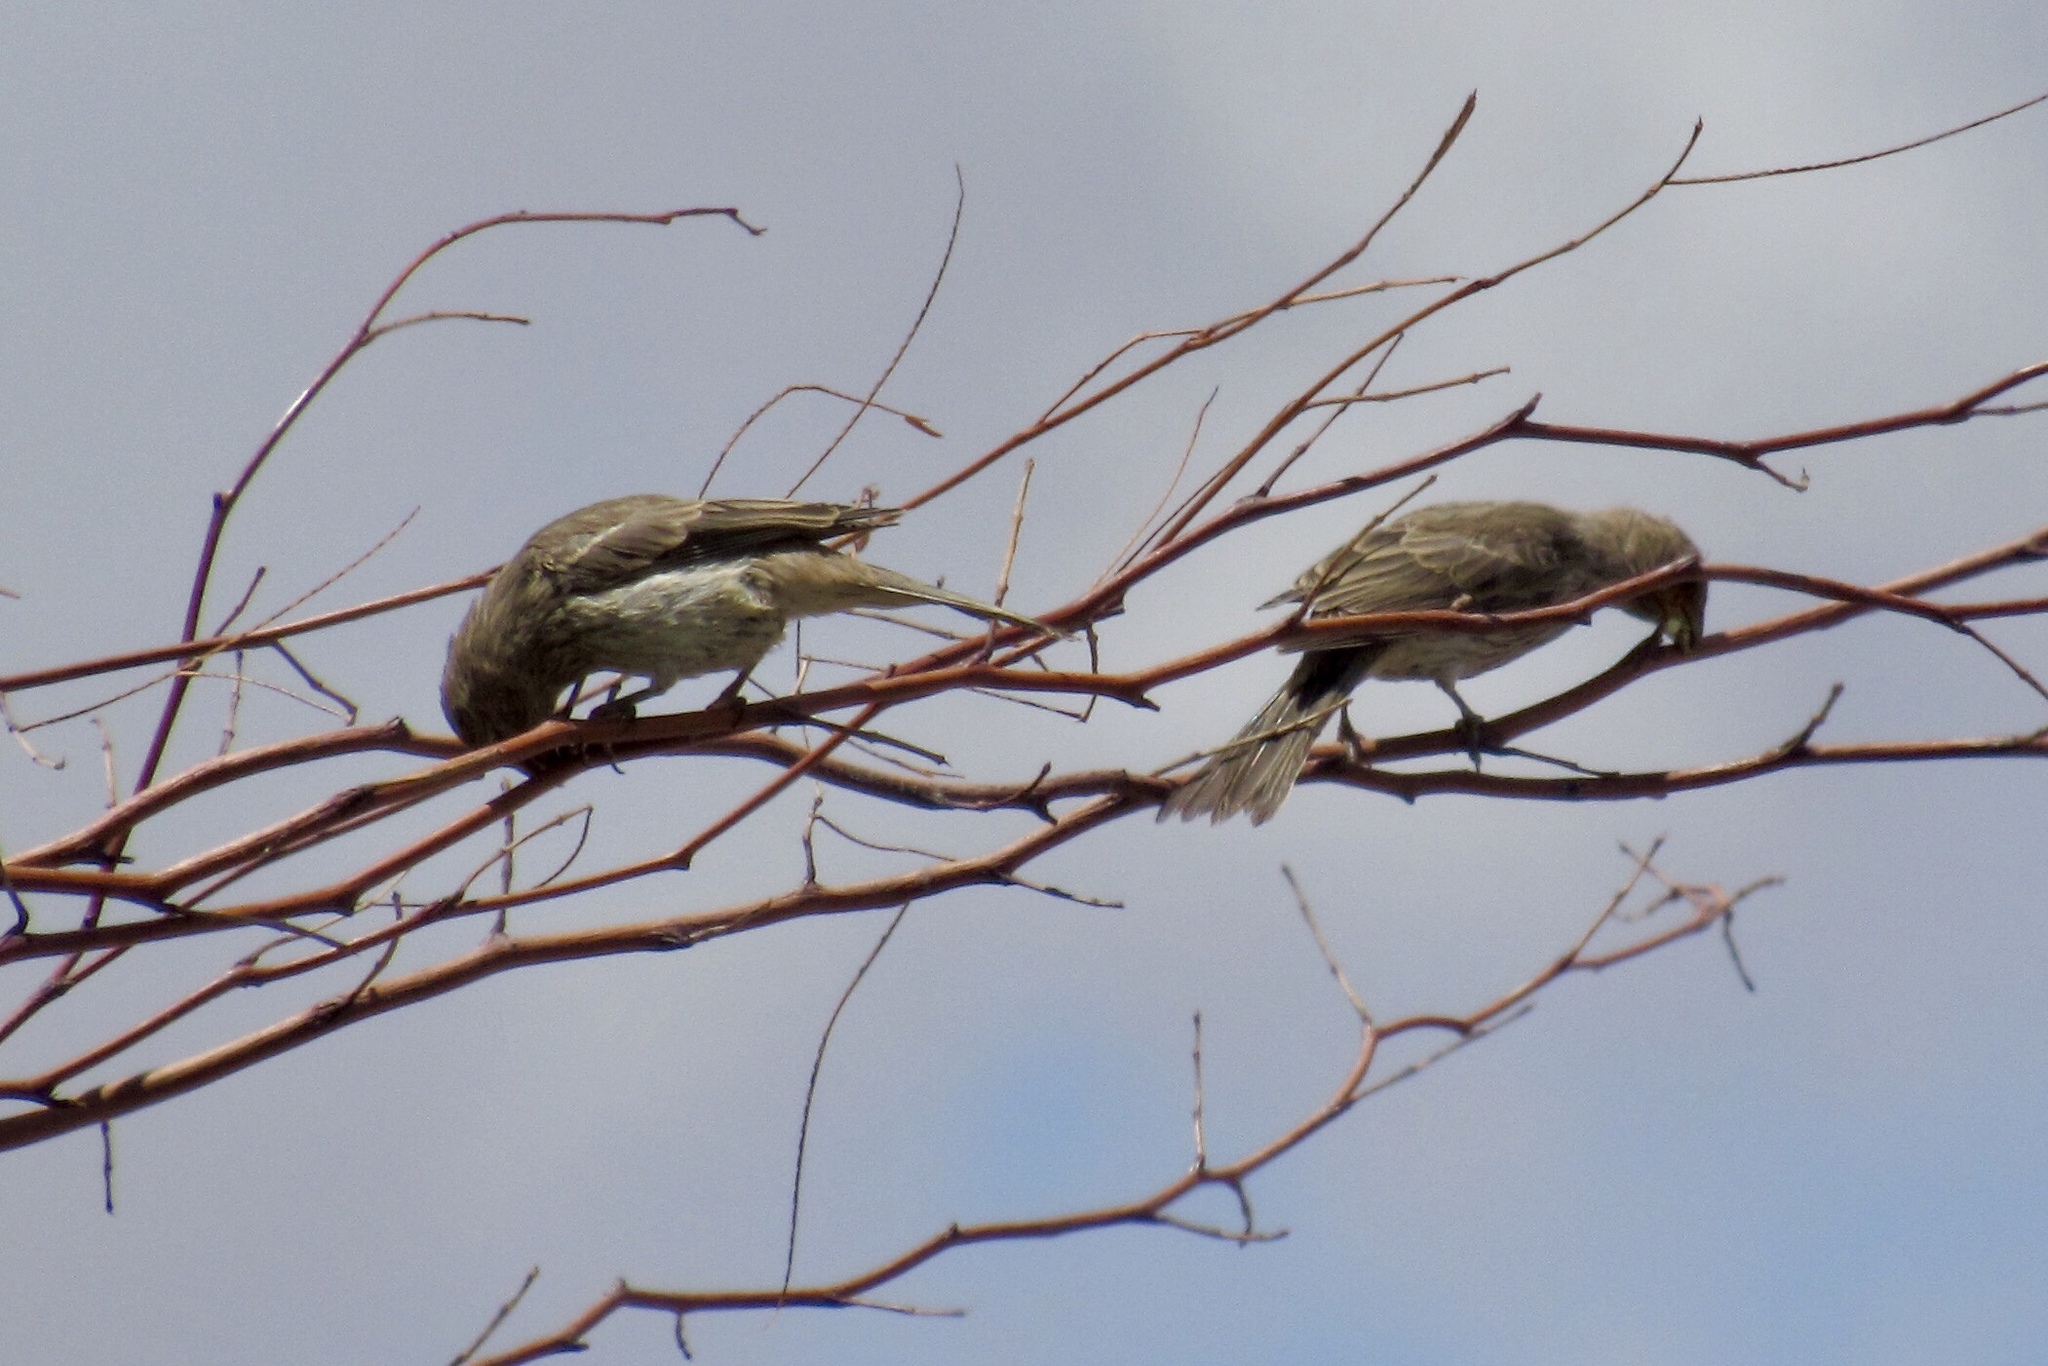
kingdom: Animalia
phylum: Chordata
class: Aves
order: Passeriformes
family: Fringillidae
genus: Haemorhous
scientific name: Haemorhous mexicanus
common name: House finch
